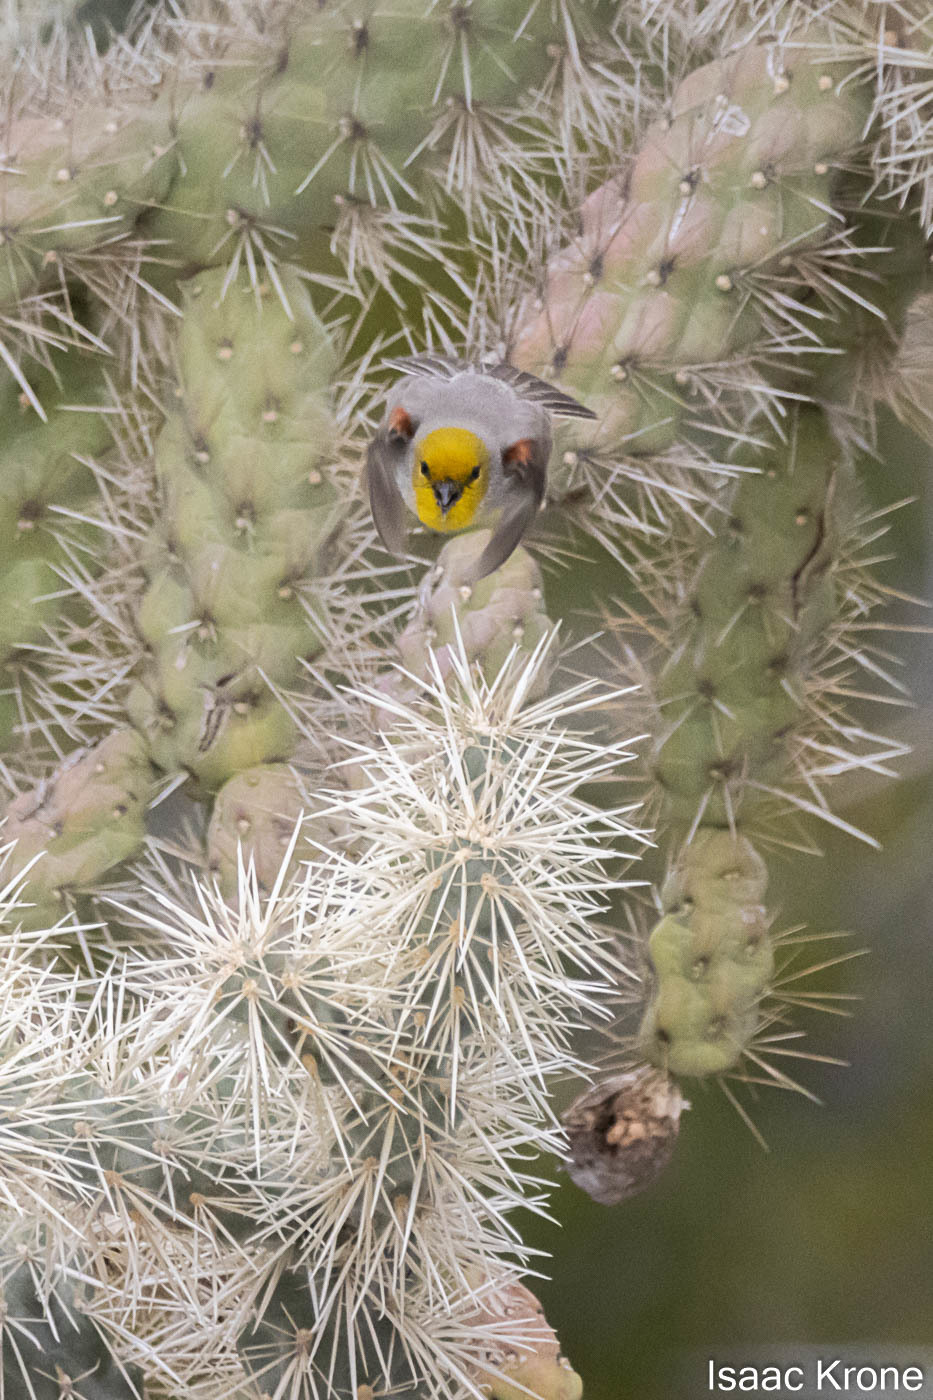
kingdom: Animalia
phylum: Chordata
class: Aves
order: Passeriformes
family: Remizidae
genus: Auriparus
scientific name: Auriparus flaviceps
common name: Verdin
